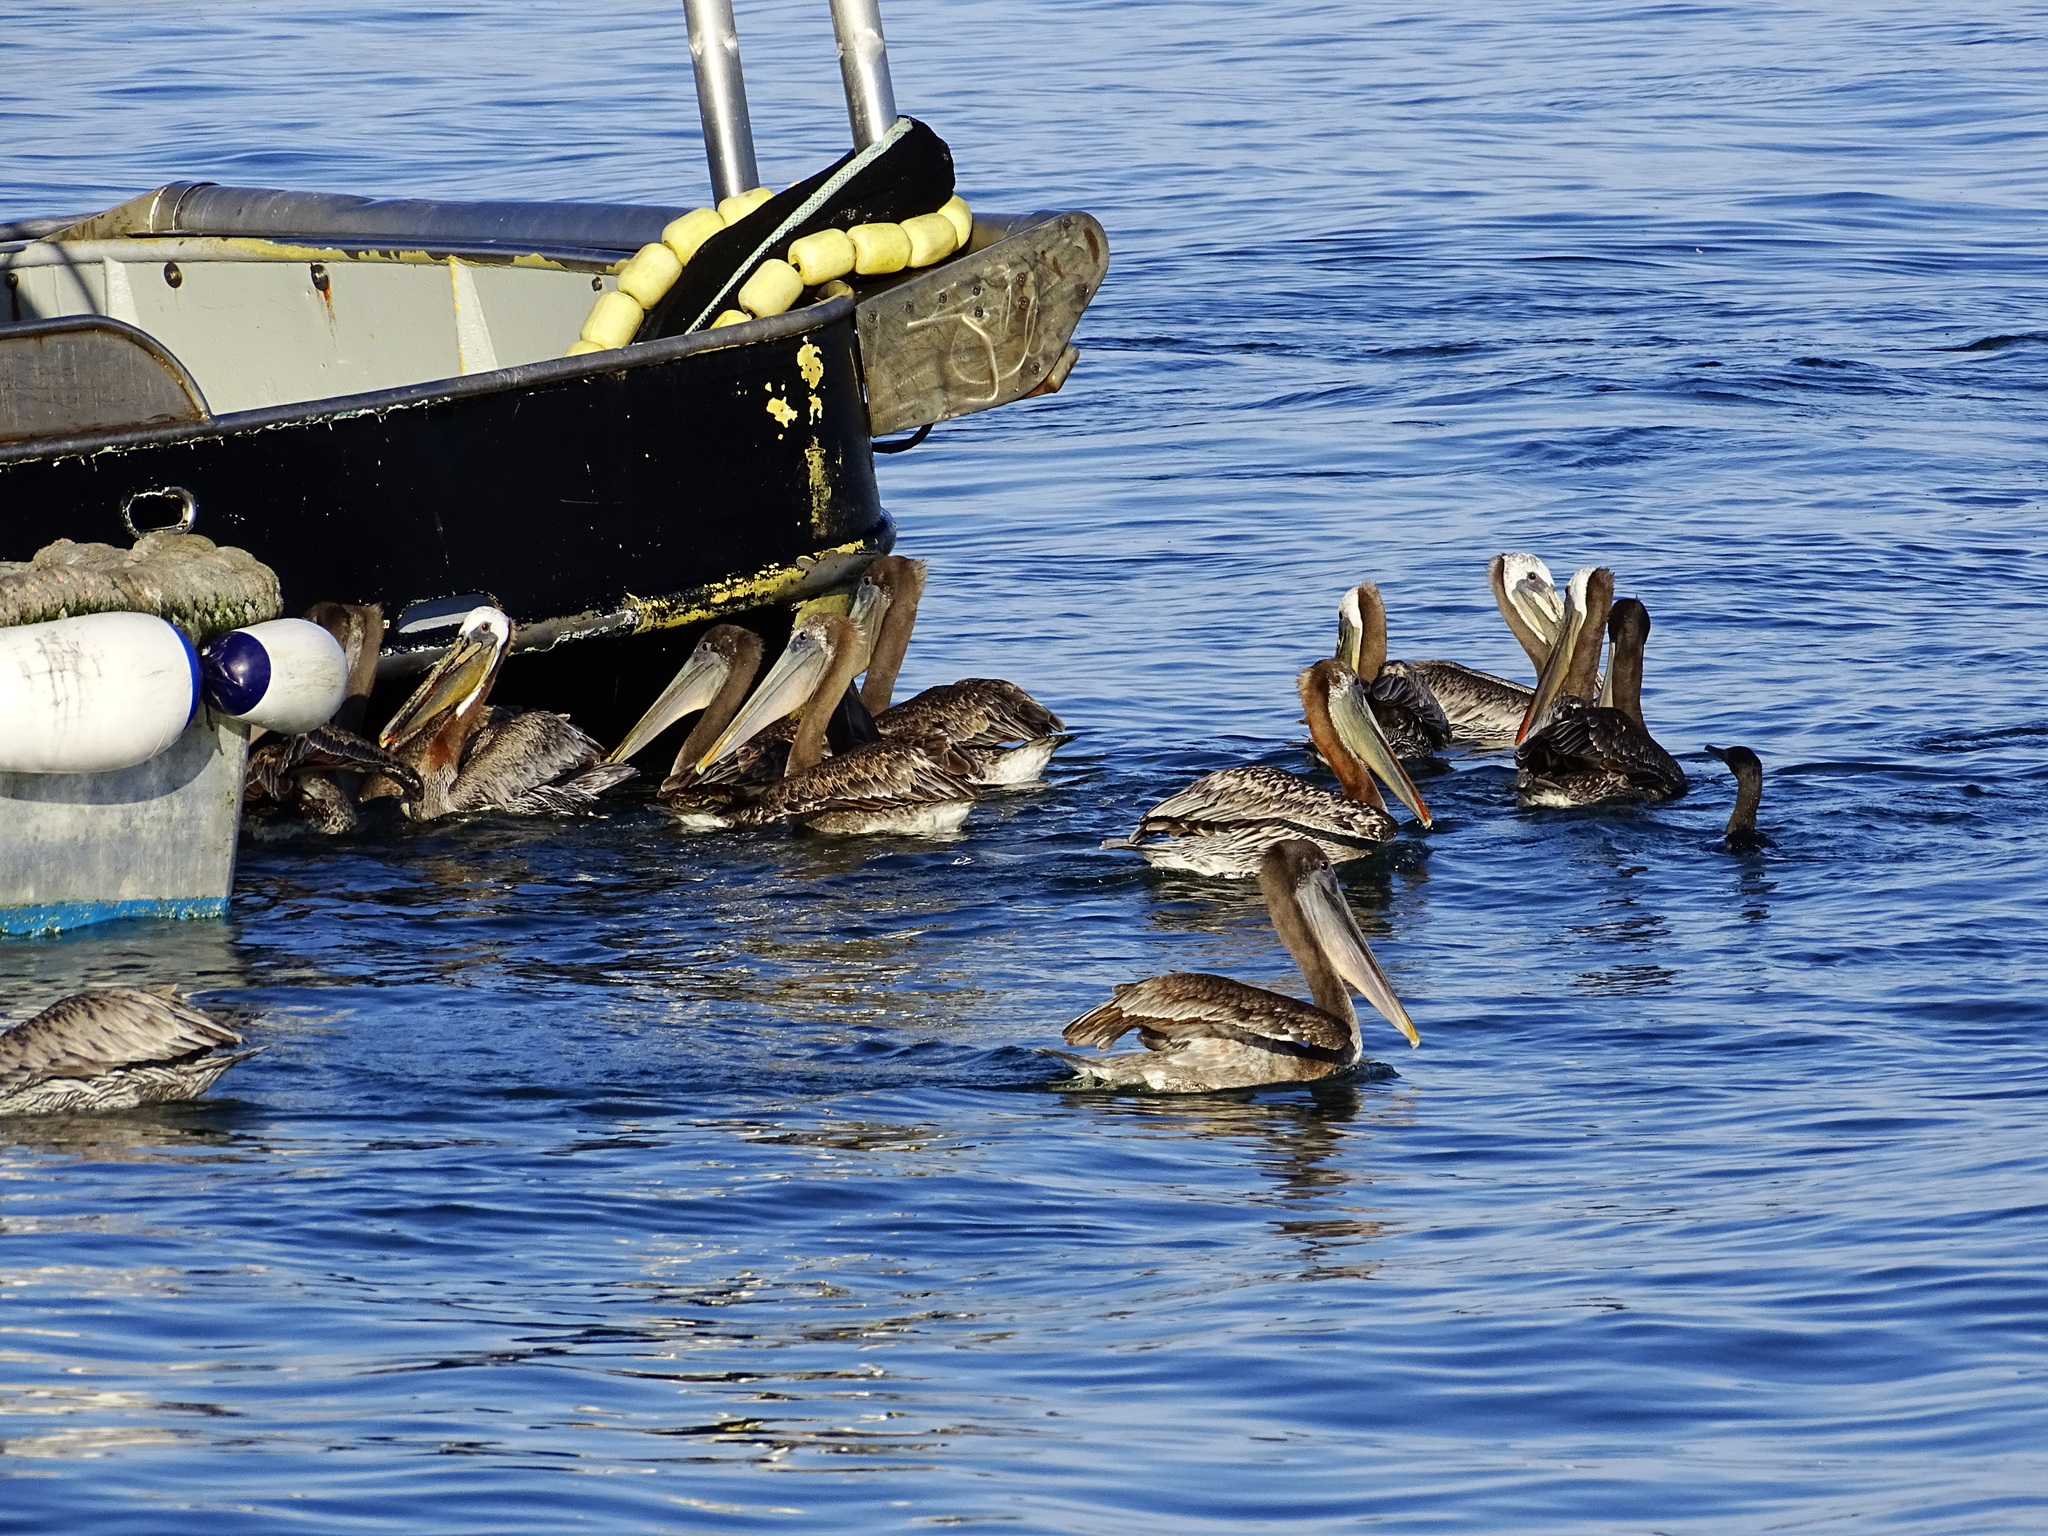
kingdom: Animalia
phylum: Chordata
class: Aves
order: Pelecaniformes
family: Pelecanidae
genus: Pelecanus
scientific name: Pelecanus occidentalis
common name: Brown pelican
